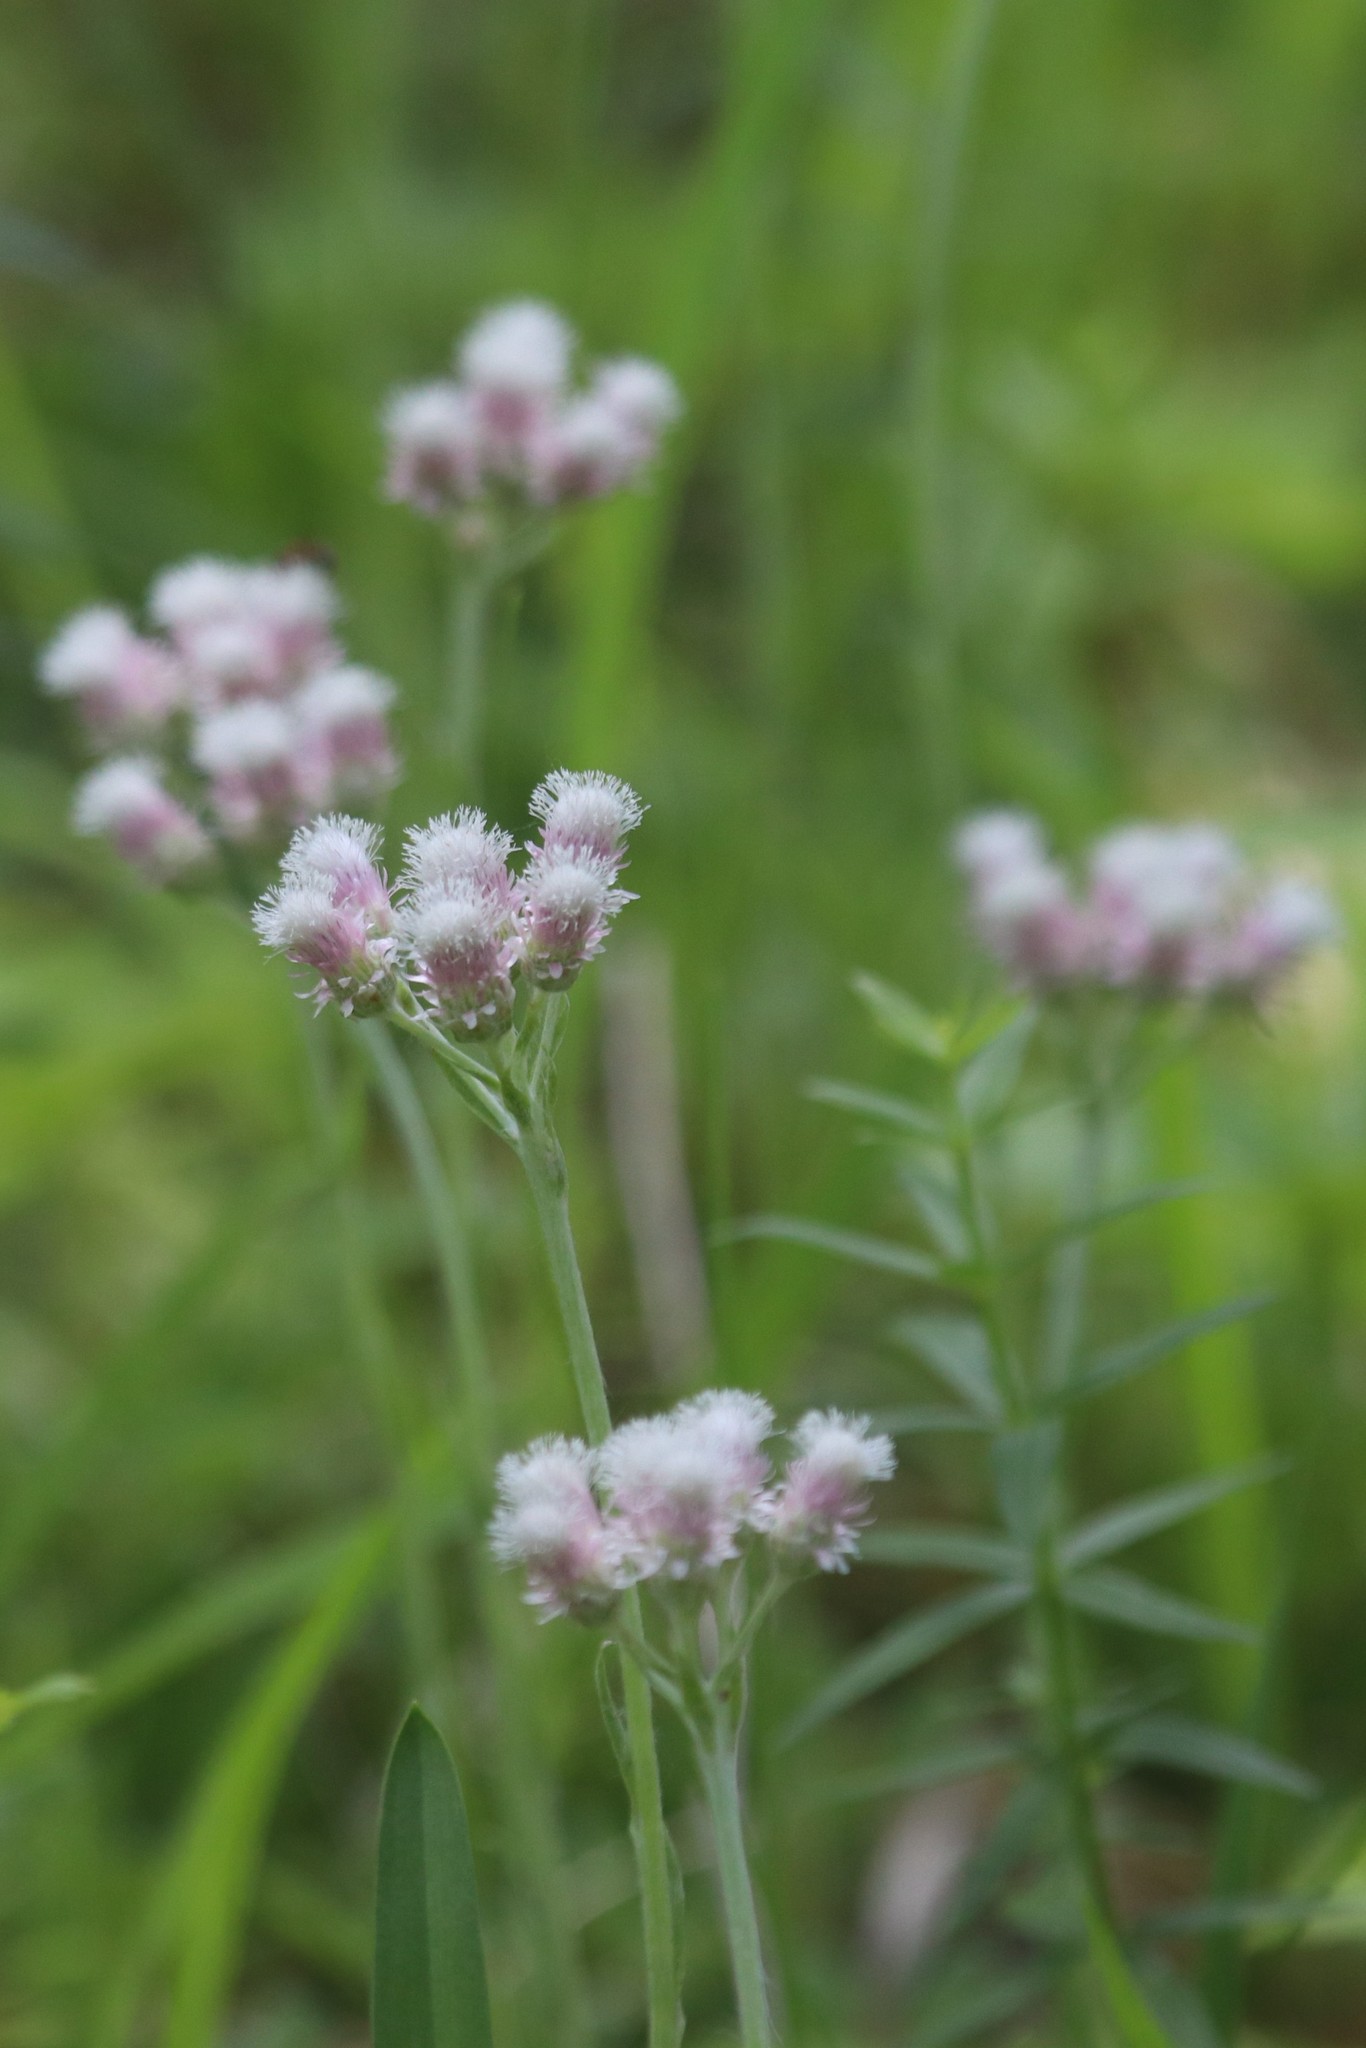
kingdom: Plantae
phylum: Tracheophyta
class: Magnoliopsida
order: Asterales
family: Asteraceae
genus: Antennaria
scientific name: Antennaria dioica
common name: Mountain everlasting
